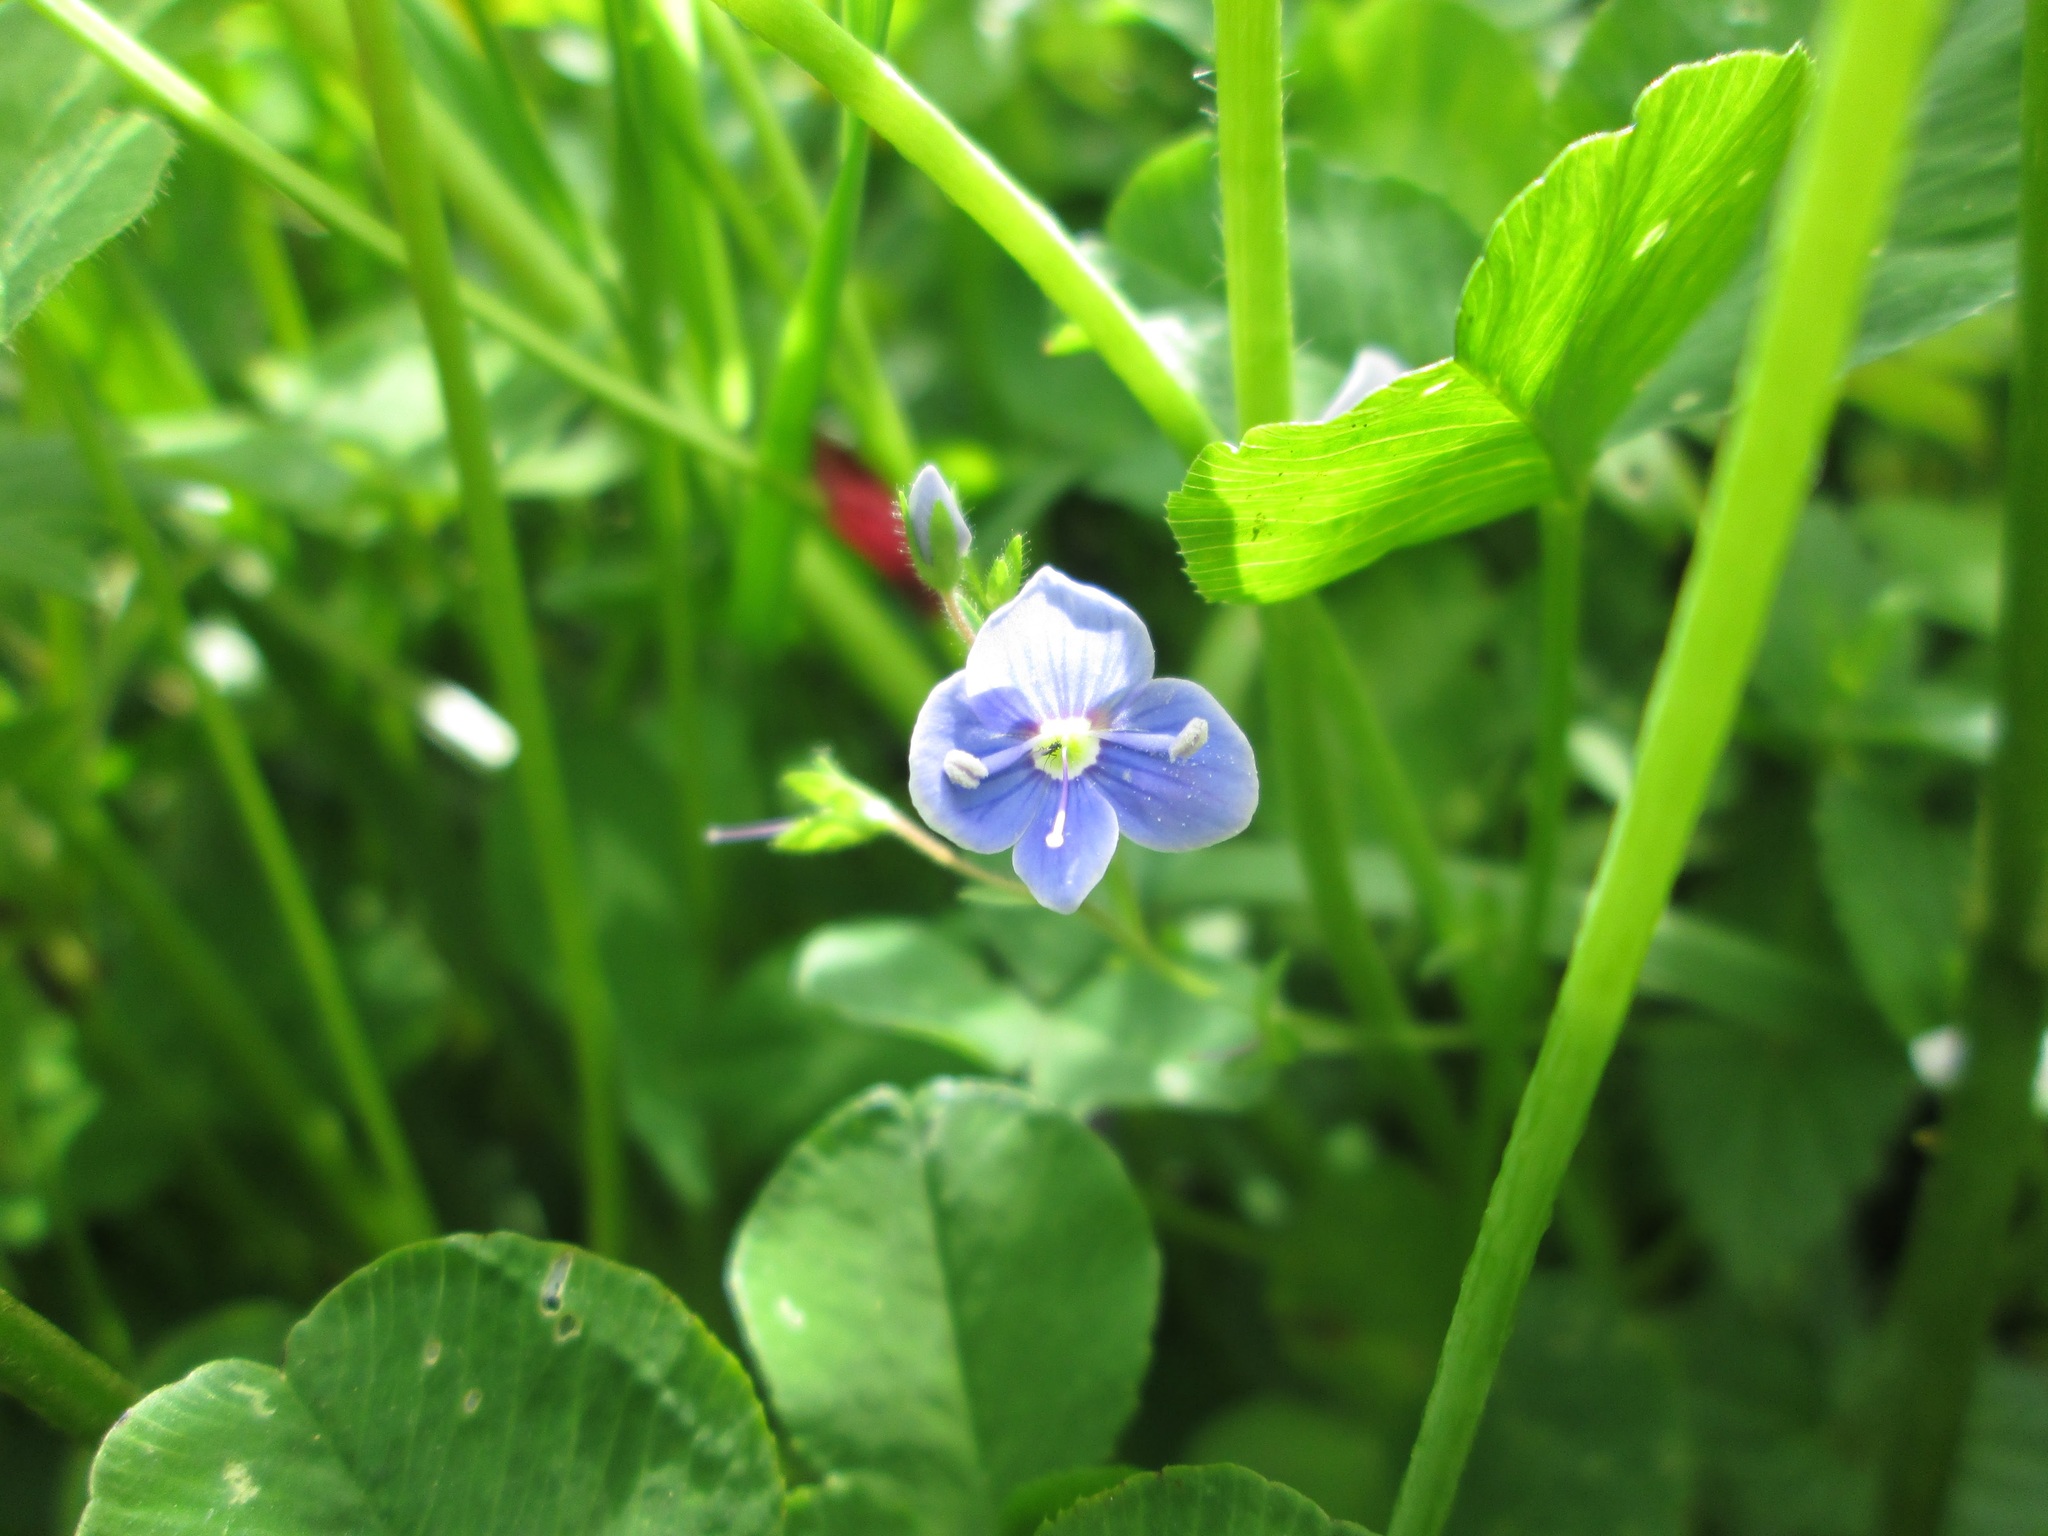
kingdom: Plantae
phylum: Tracheophyta
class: Magnoliopsida
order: Lamiales
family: Plantaginaceae
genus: Veronica
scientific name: Veronica chamaedrys
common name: Germander speedwell
